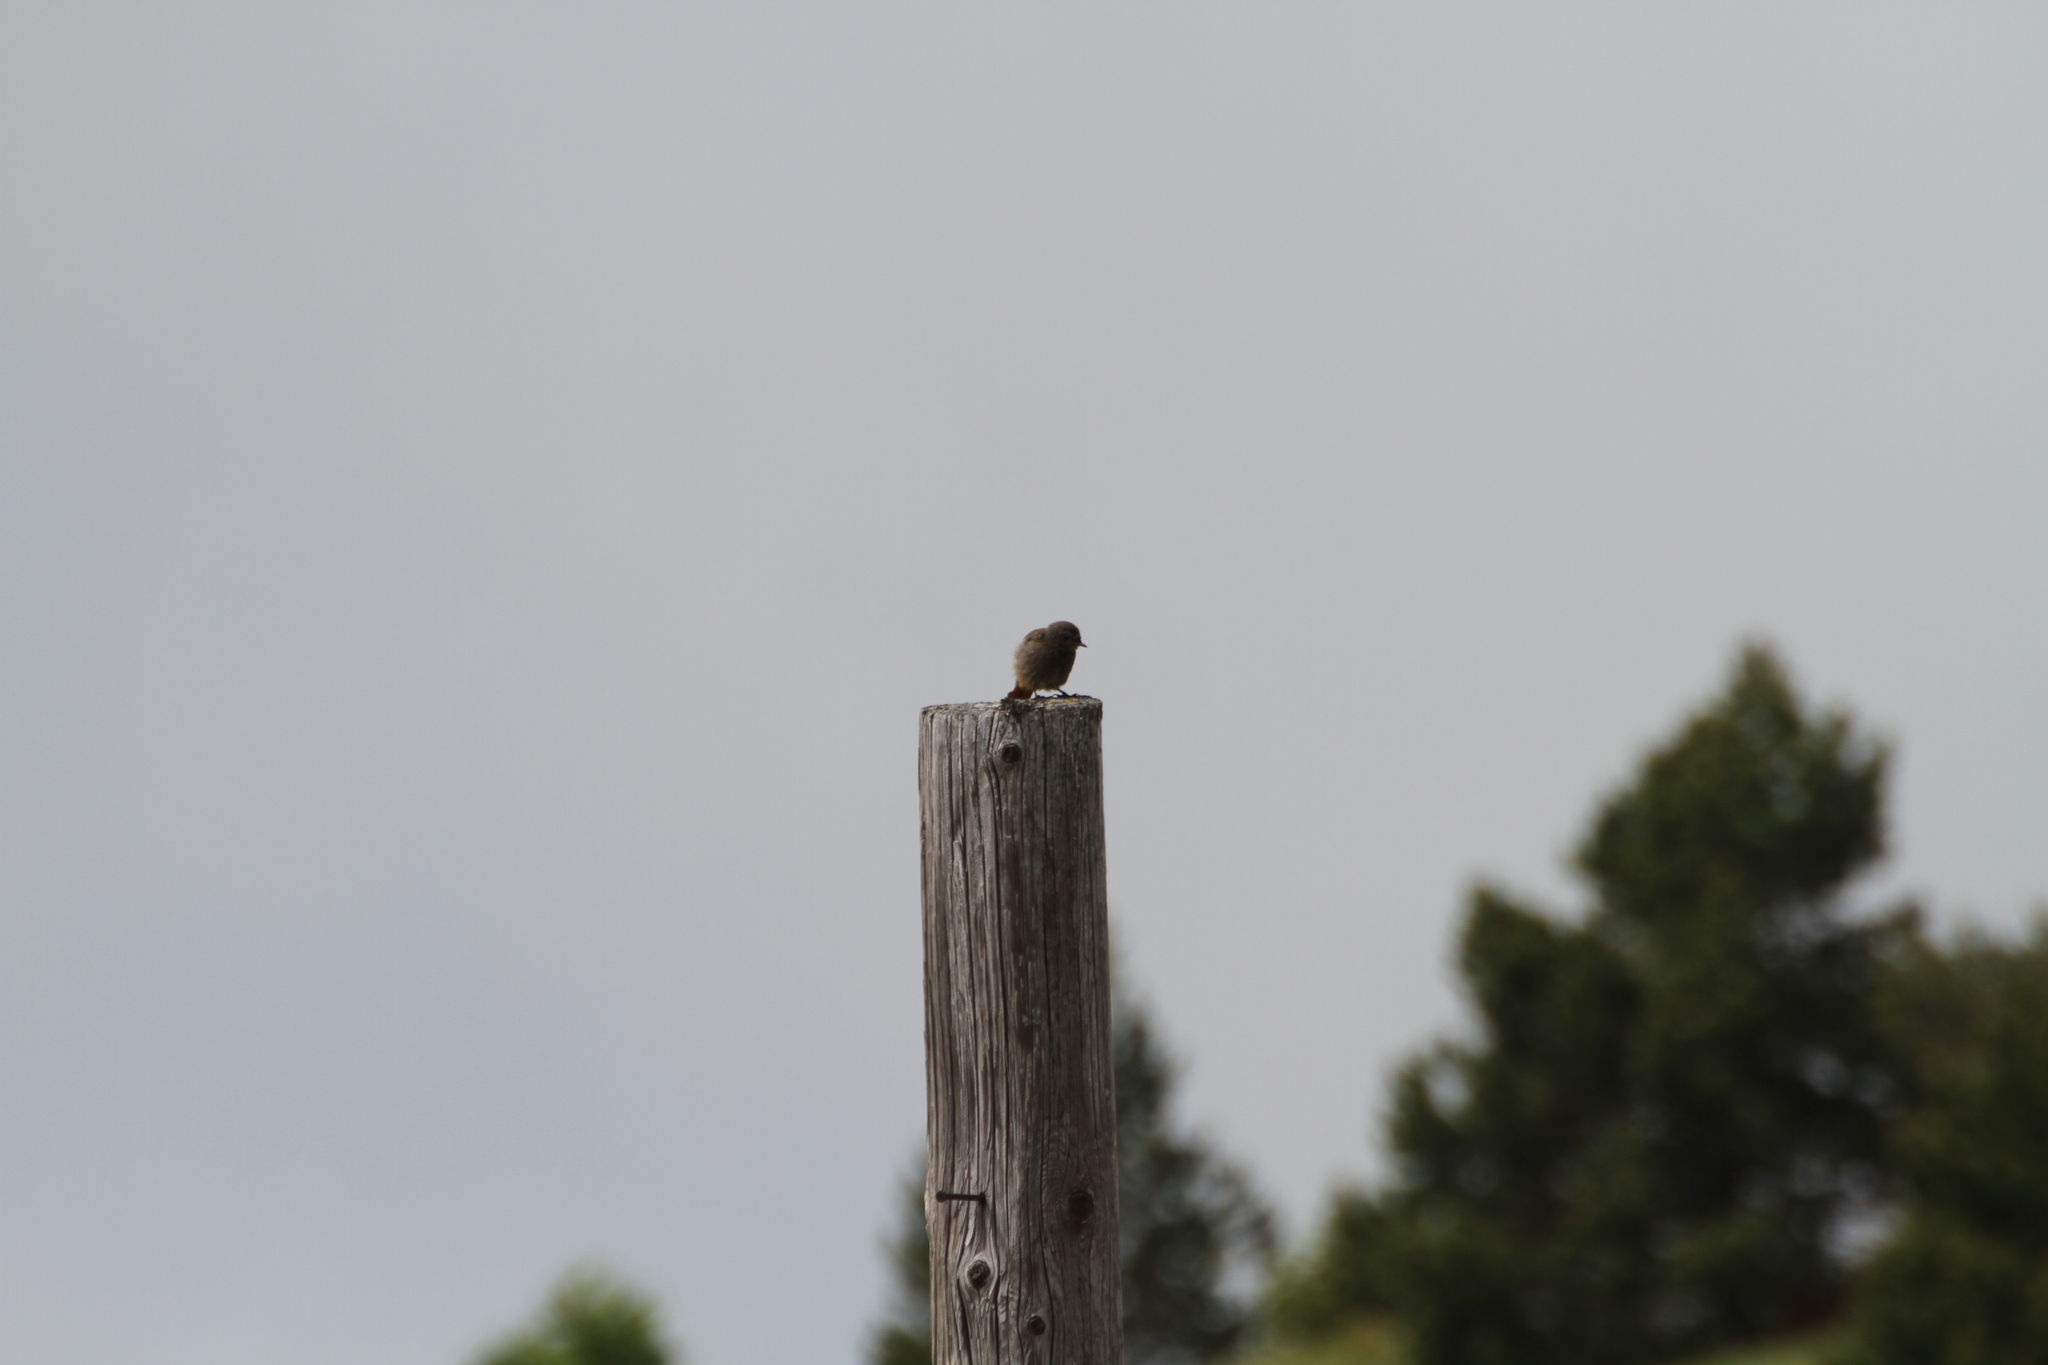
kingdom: Animalia
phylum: Chordata
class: Aves
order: Passeriformes
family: Muscicapidae
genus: Phoenicurus
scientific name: Phoenicurus ochruros
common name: Black redstart
